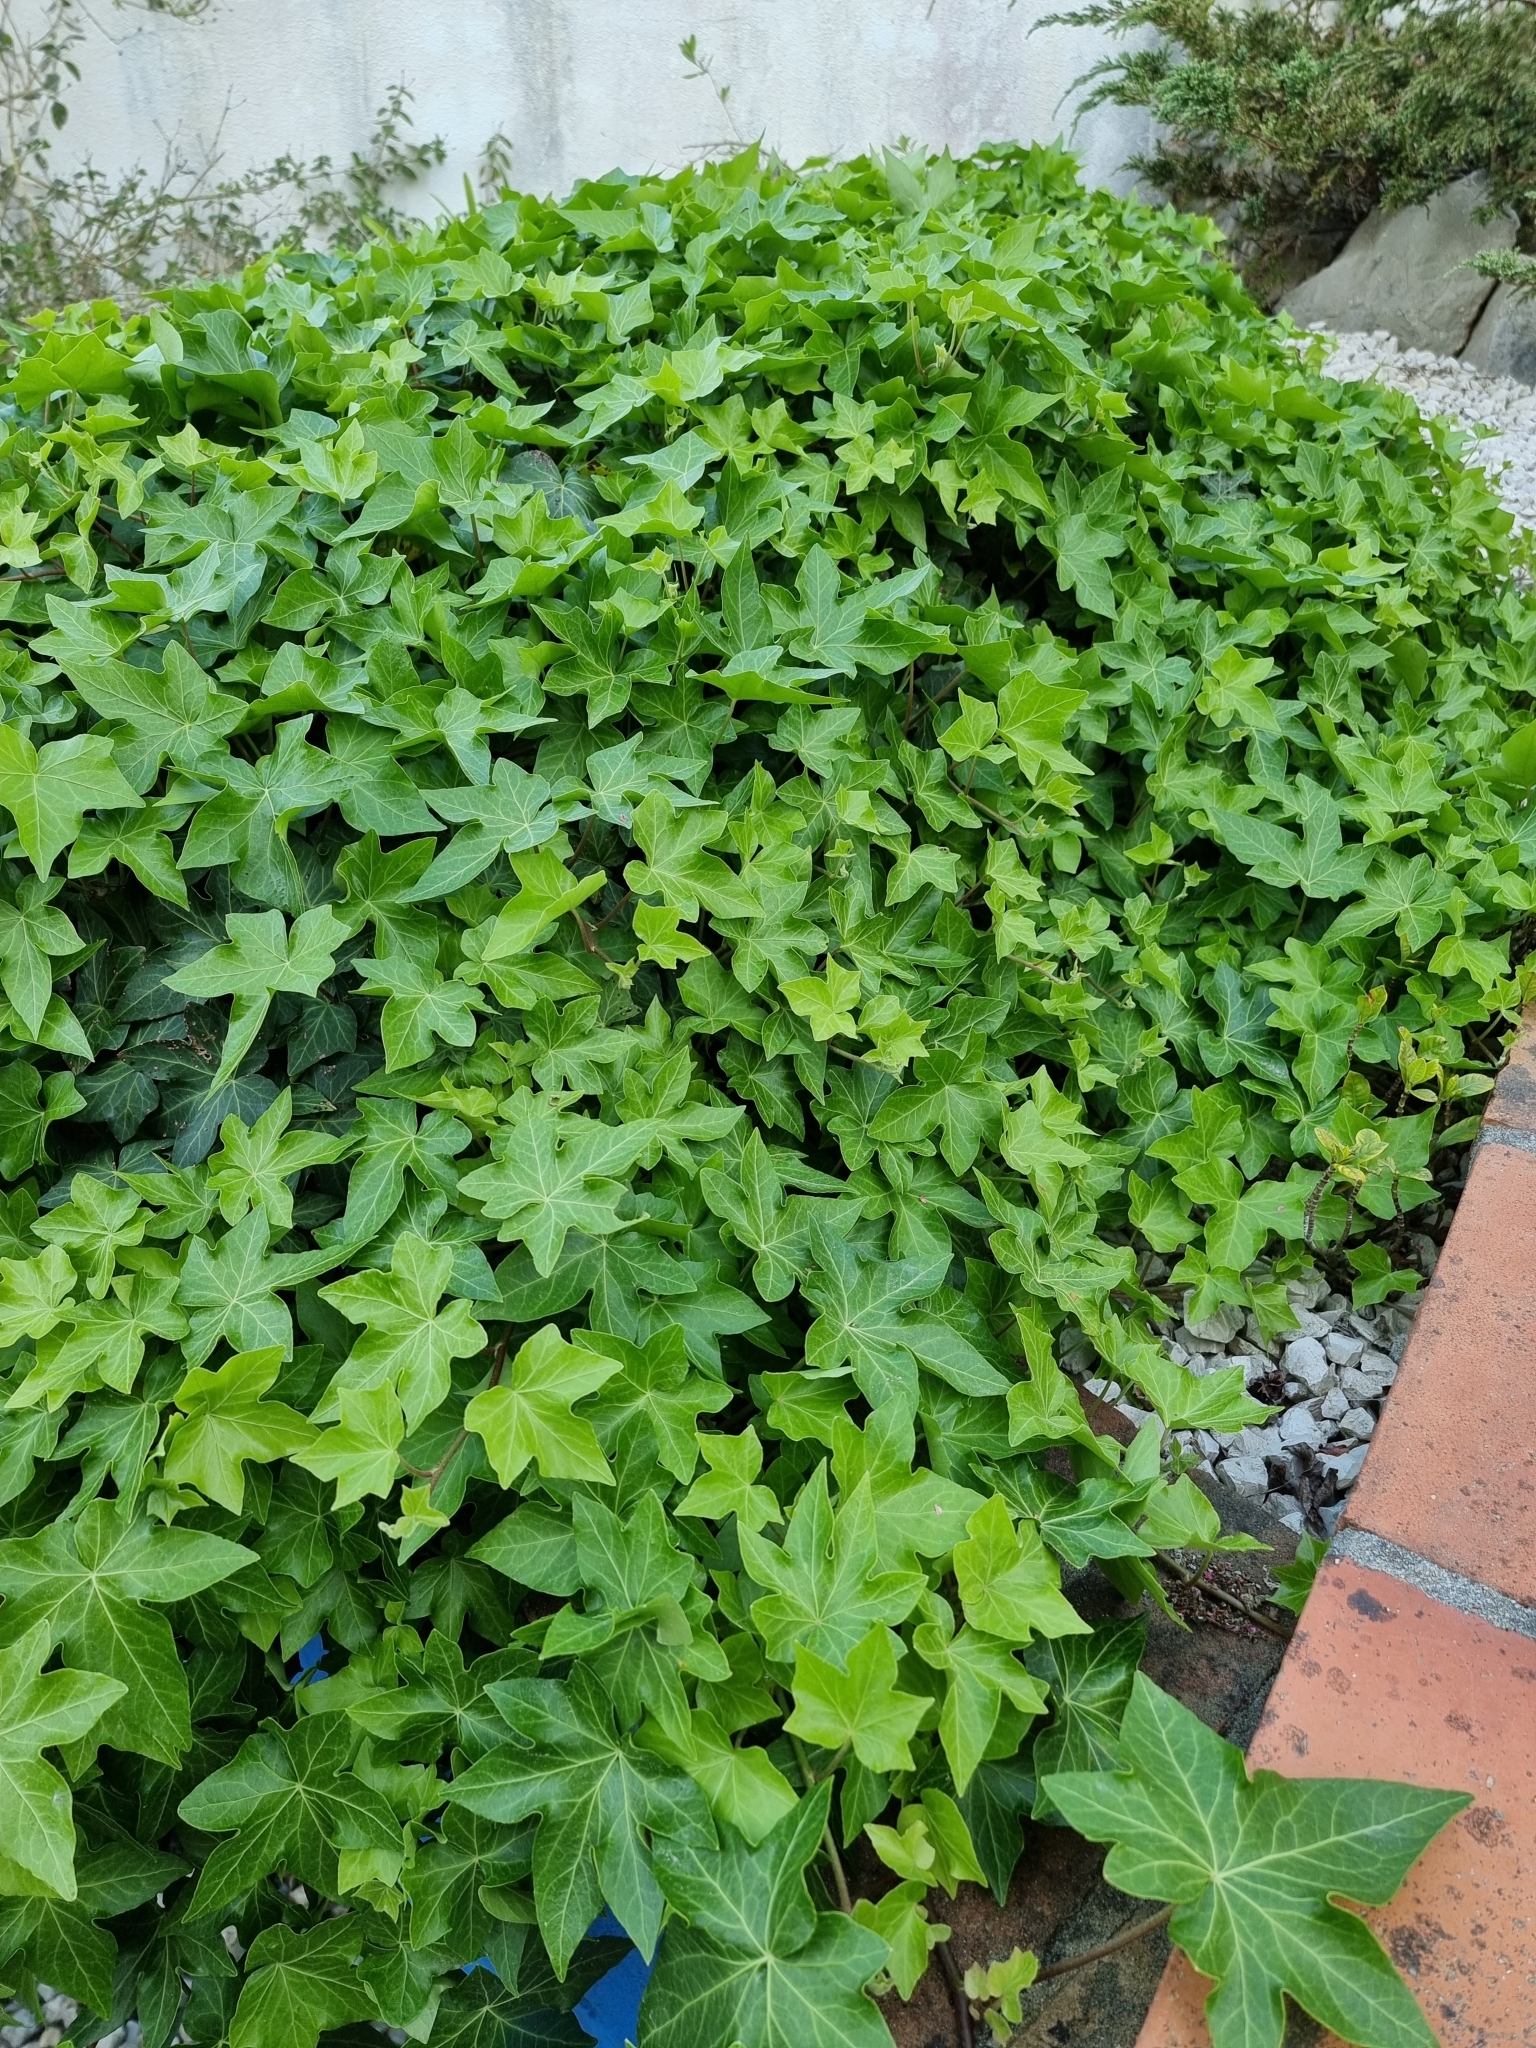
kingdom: Plantae
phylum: Tracheophyta
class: Magnoliopsida
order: Apiales
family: Araliaceae
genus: Hedera
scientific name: Hedera helix
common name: Ivy
